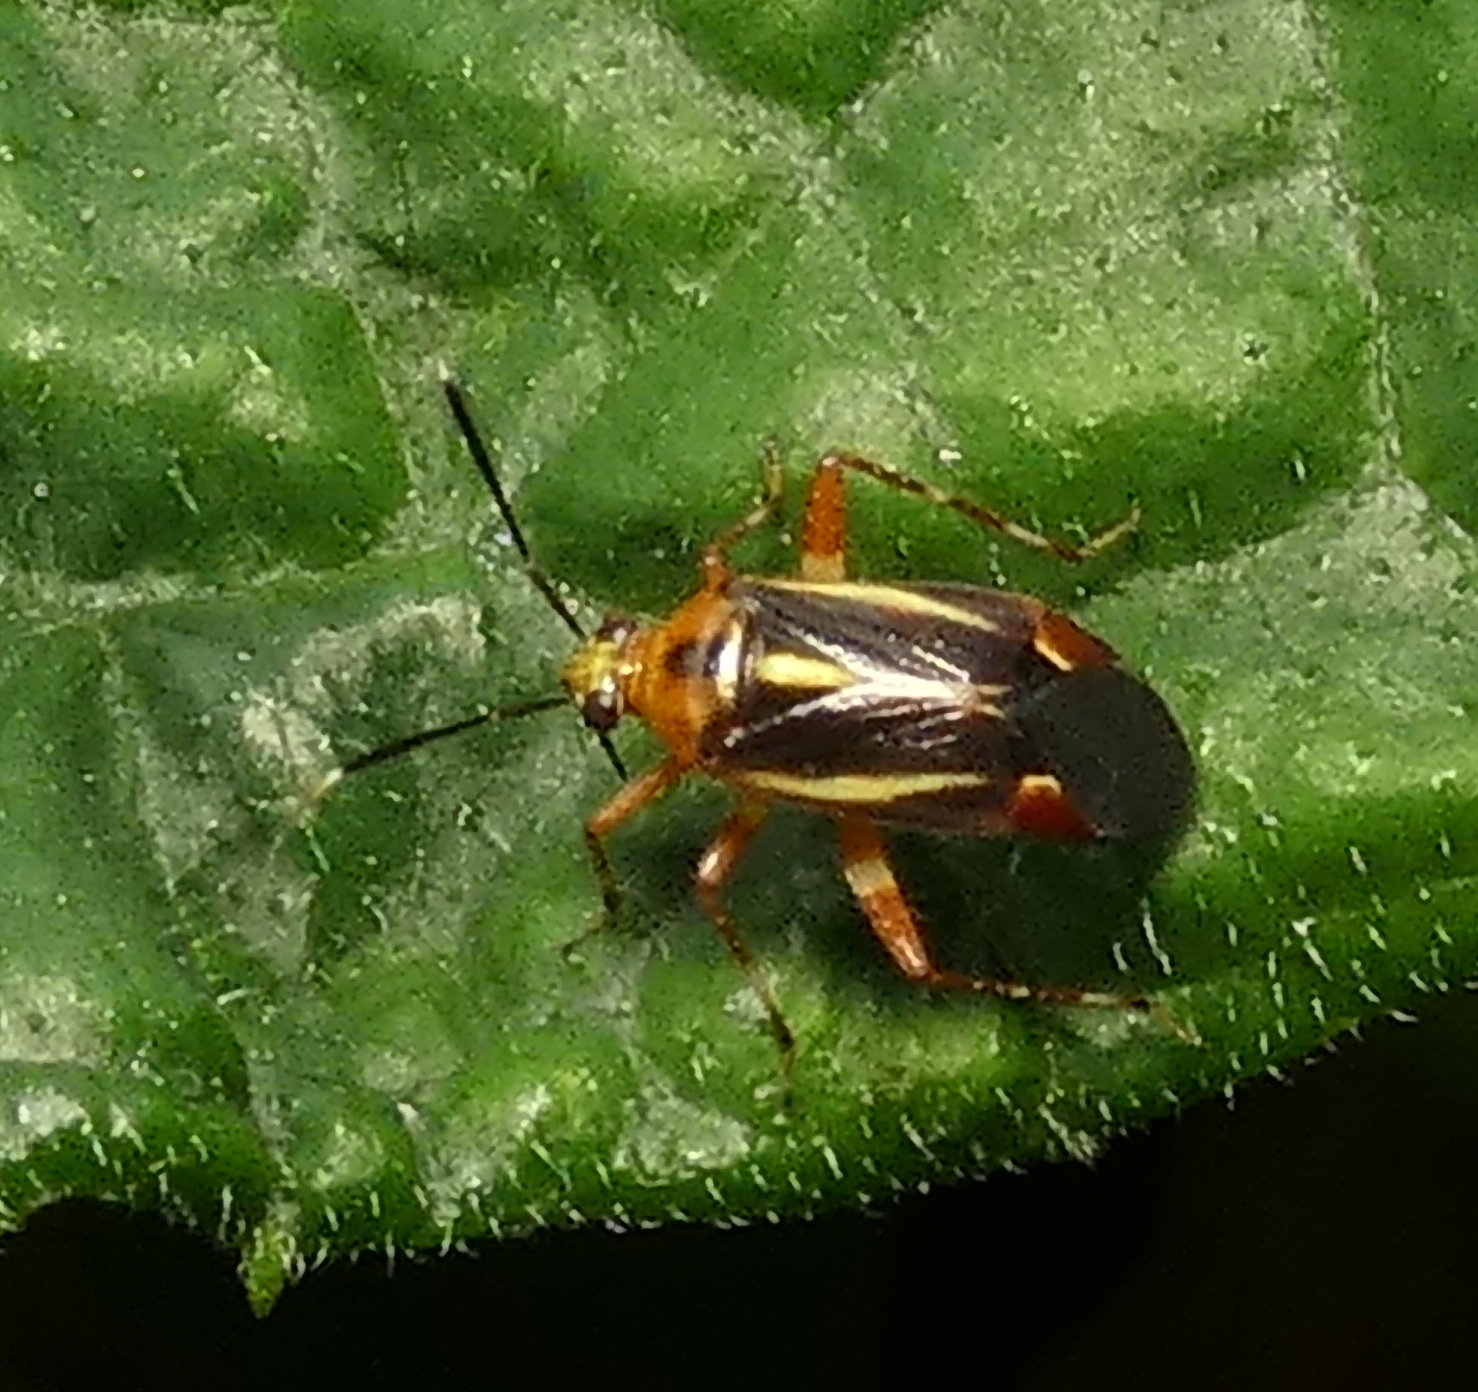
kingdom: Animalia
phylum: Arthropoda
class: Insecta
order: Hemiptera
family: Miridae
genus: Horciasinus
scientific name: Horciasinus signoreti
